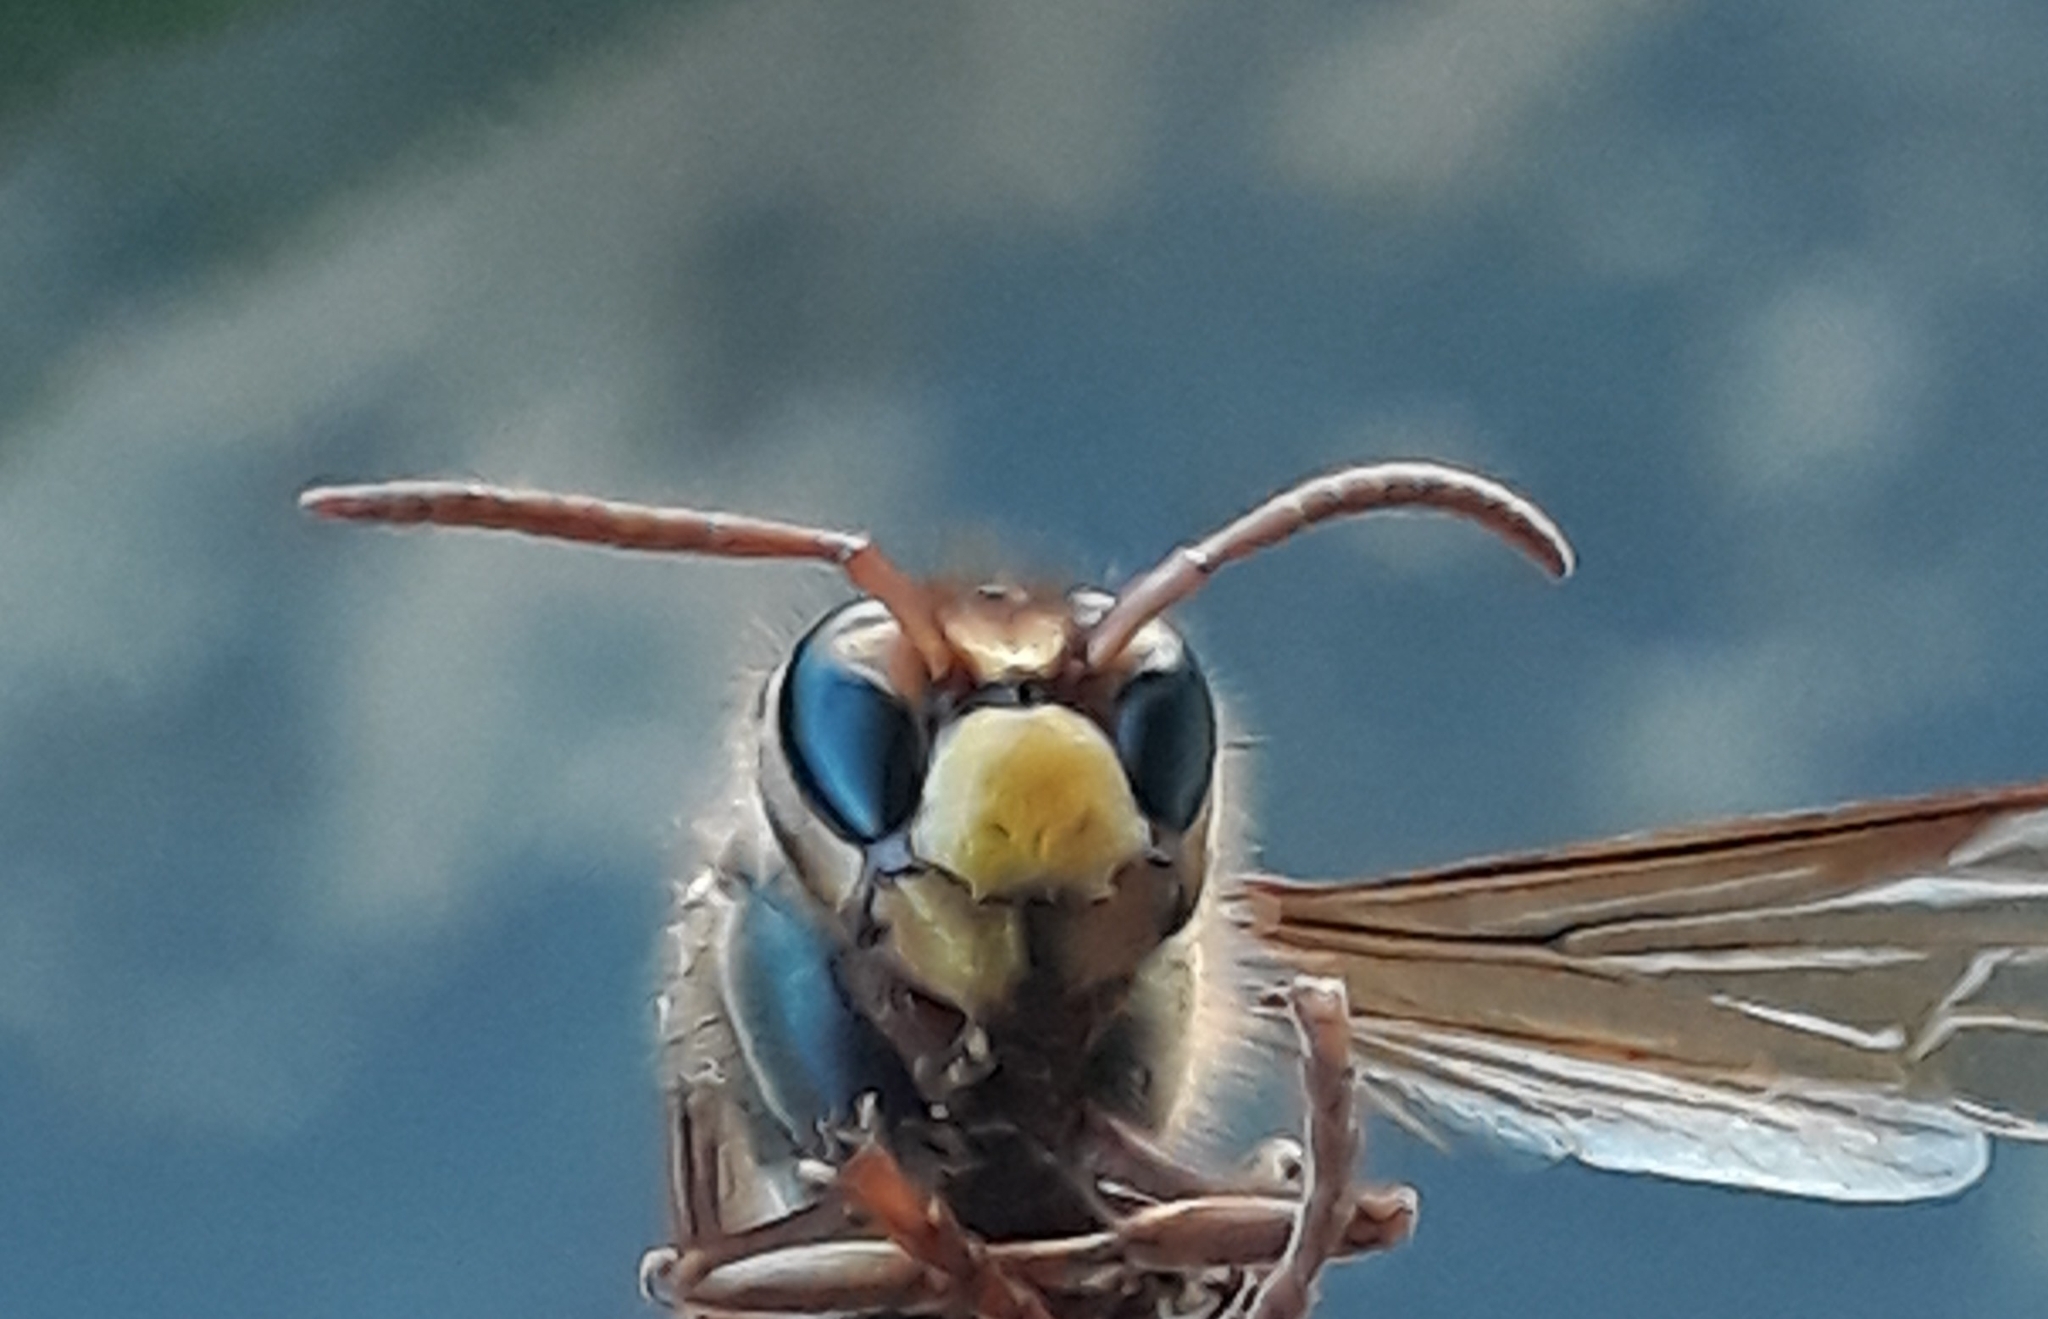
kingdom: Animalia
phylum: Arthropoda
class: Insecta
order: Hymenoptera
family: Vespidae
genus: Vespa
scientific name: Vespa crabro
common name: Hornet
